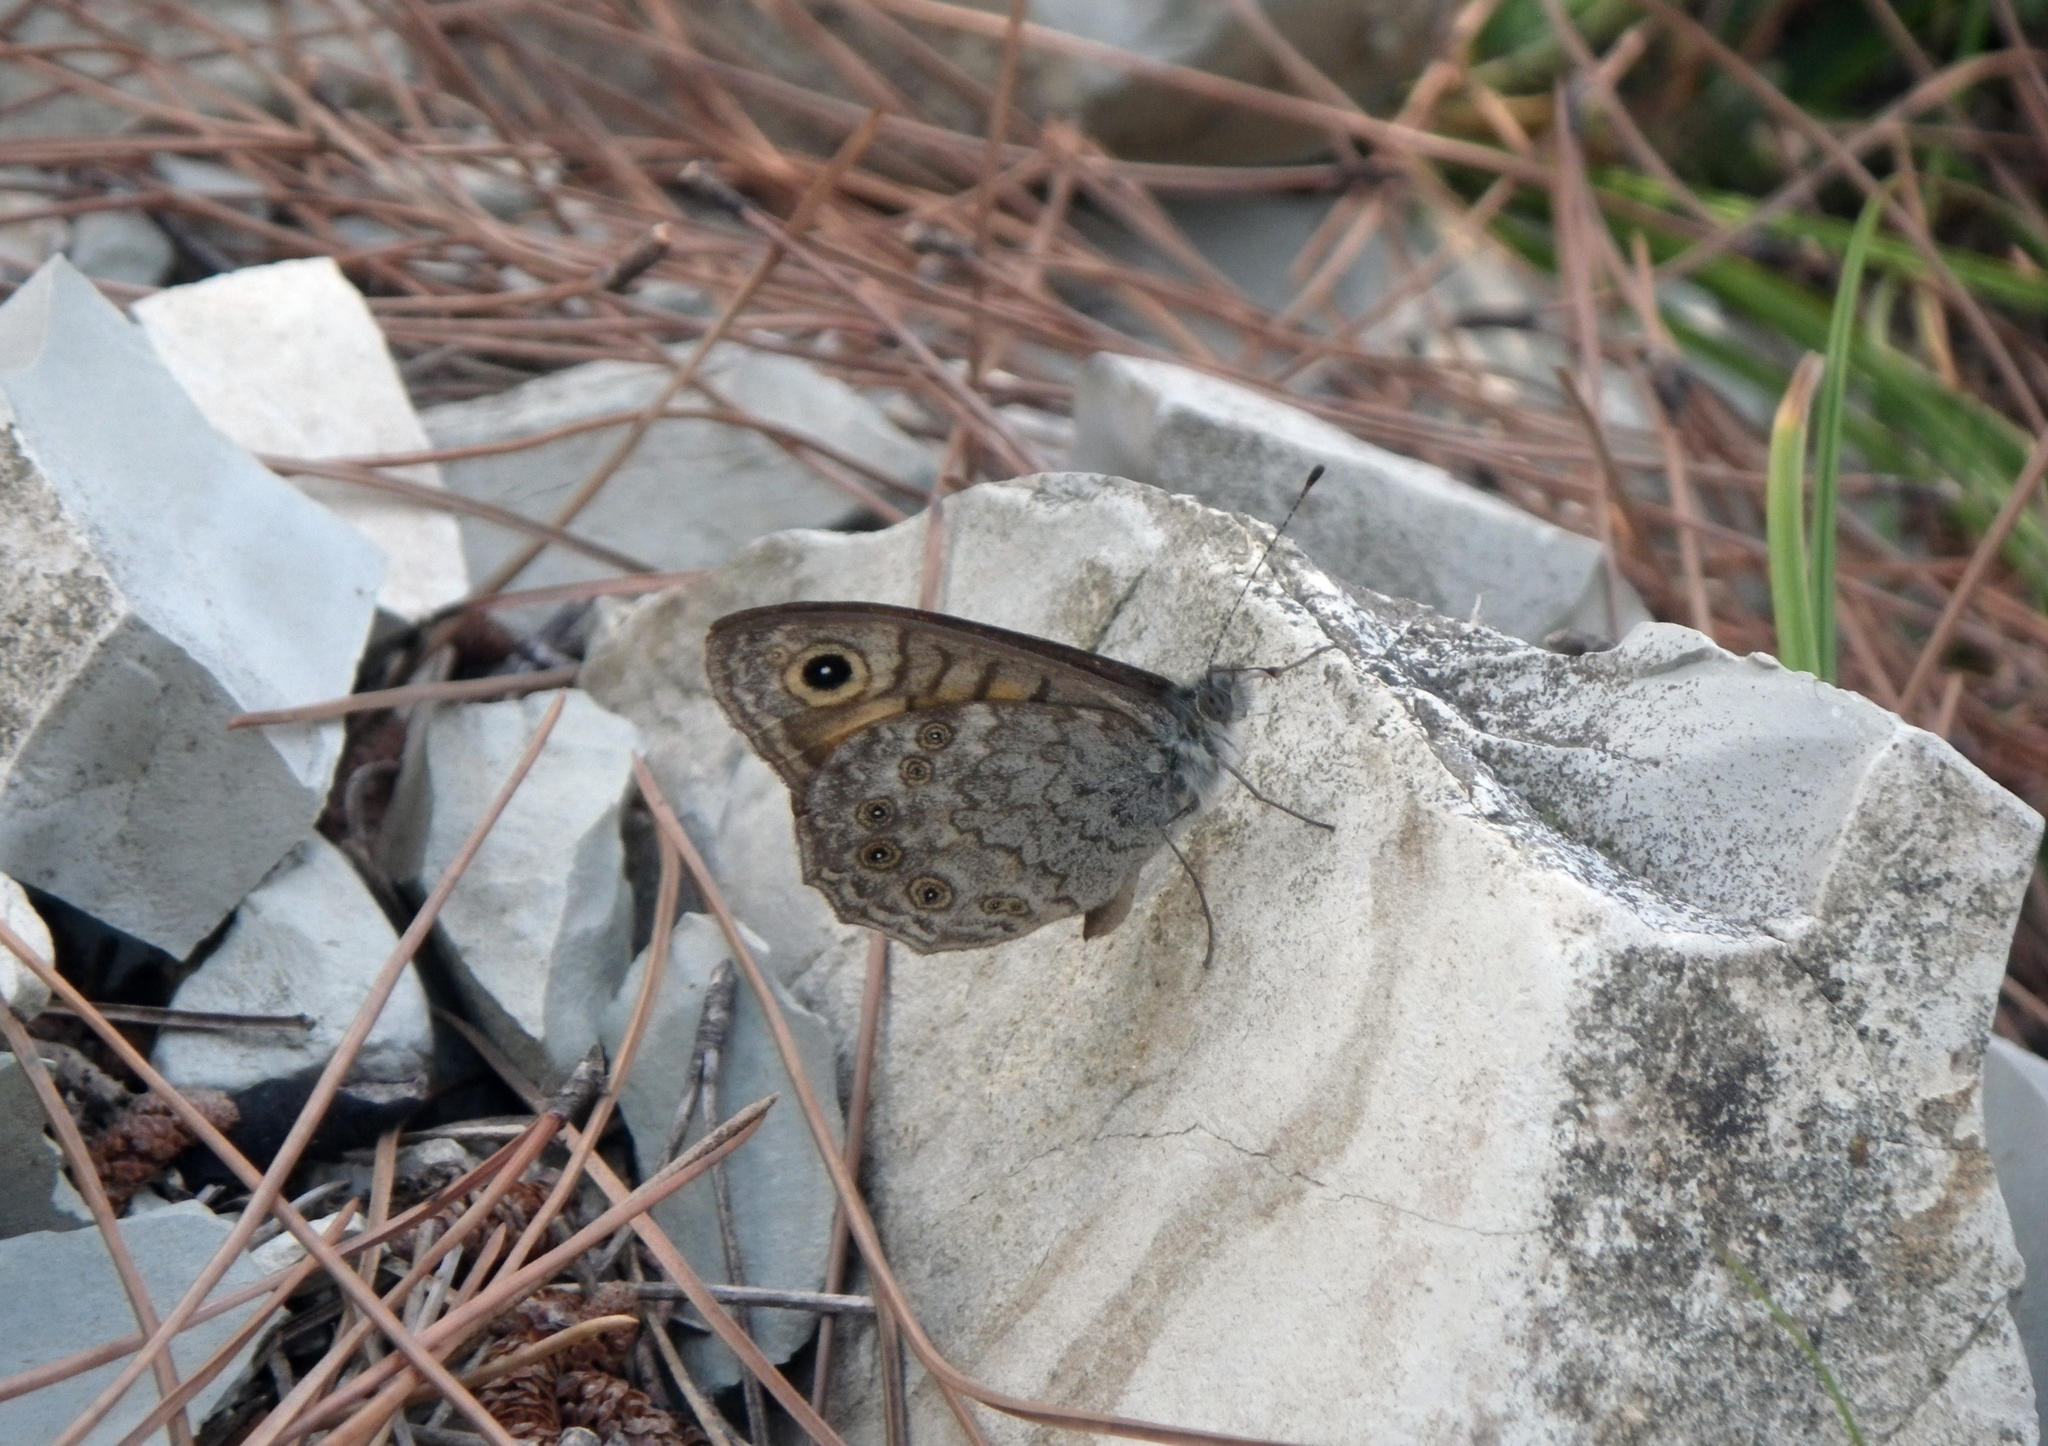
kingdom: Animalia
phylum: Arthropoda
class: Insecta
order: Lepidoptera
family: Nymphalidae
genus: Pararge
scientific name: Pararge Lasiommata megera
